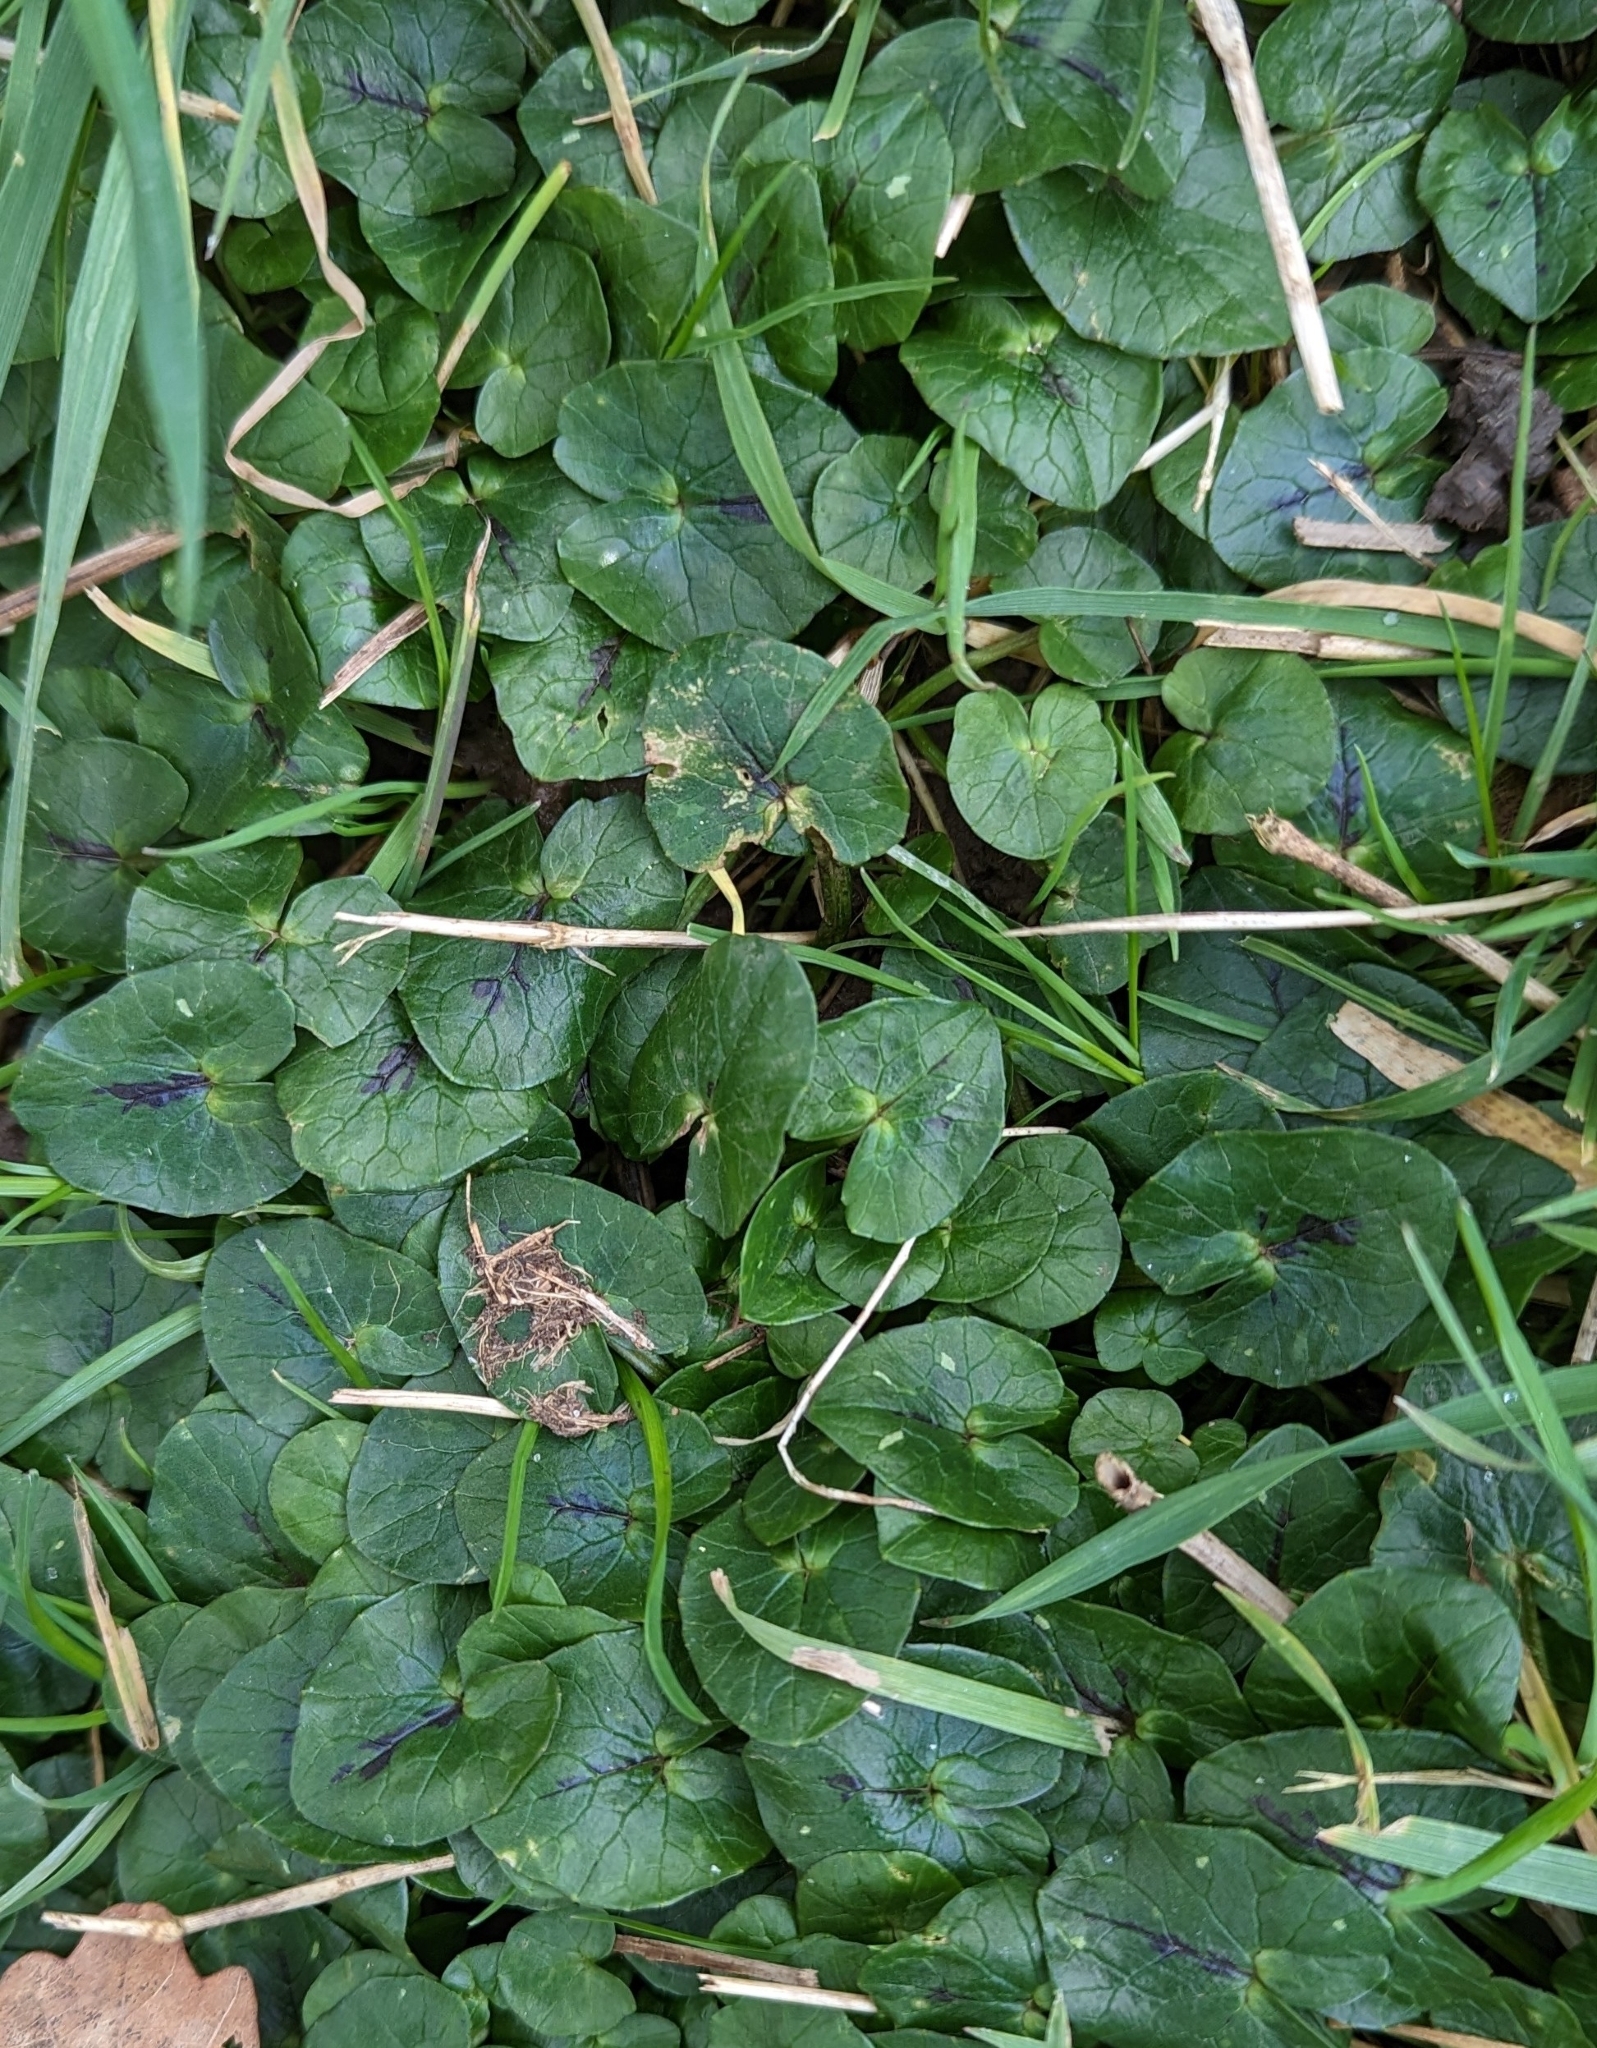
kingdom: Plantae
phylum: Tracheophyta
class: Magnoliopsida
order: Ranunculales
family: Ranunculaceae
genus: Ficaria
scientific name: Ficaria verna
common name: Lesser celandine
